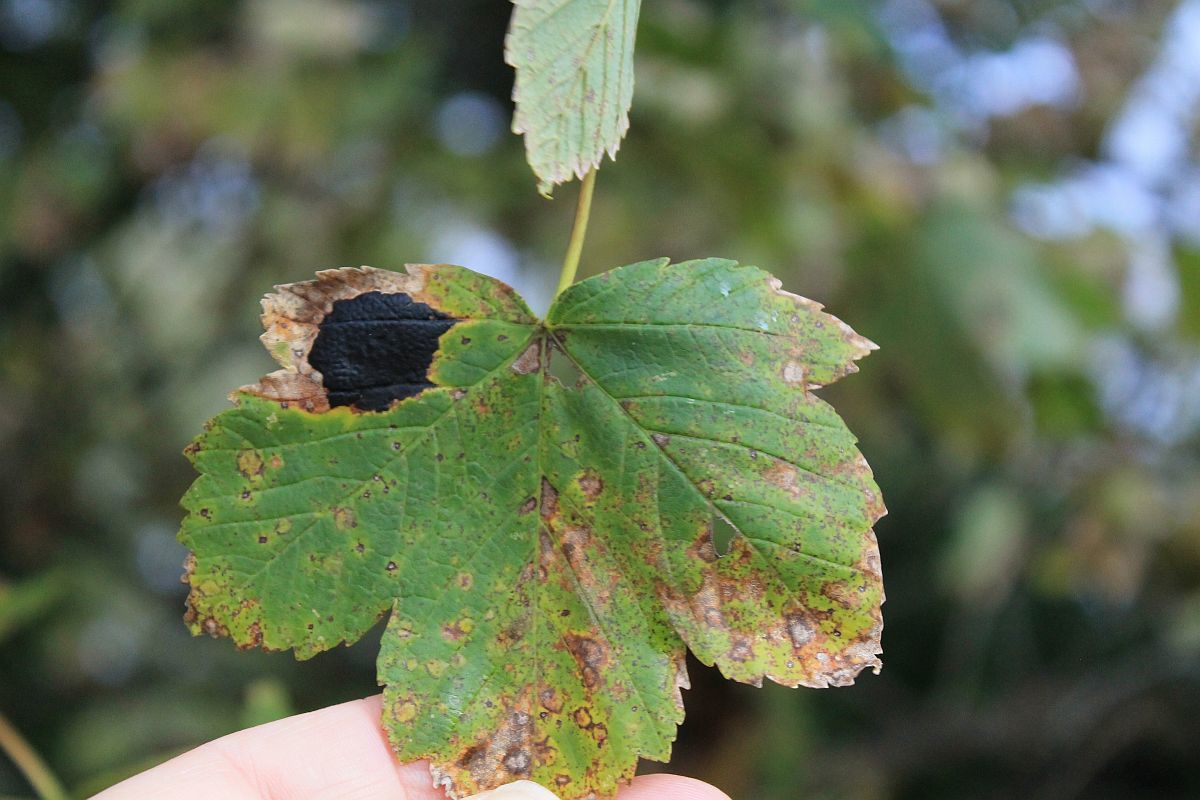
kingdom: Fungi
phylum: Ascomycota
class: Leotiomycetes
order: Rhytismatales
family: Rhytismataceae
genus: Rhytisma
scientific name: Rhytisma acerinum
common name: European tar spot
